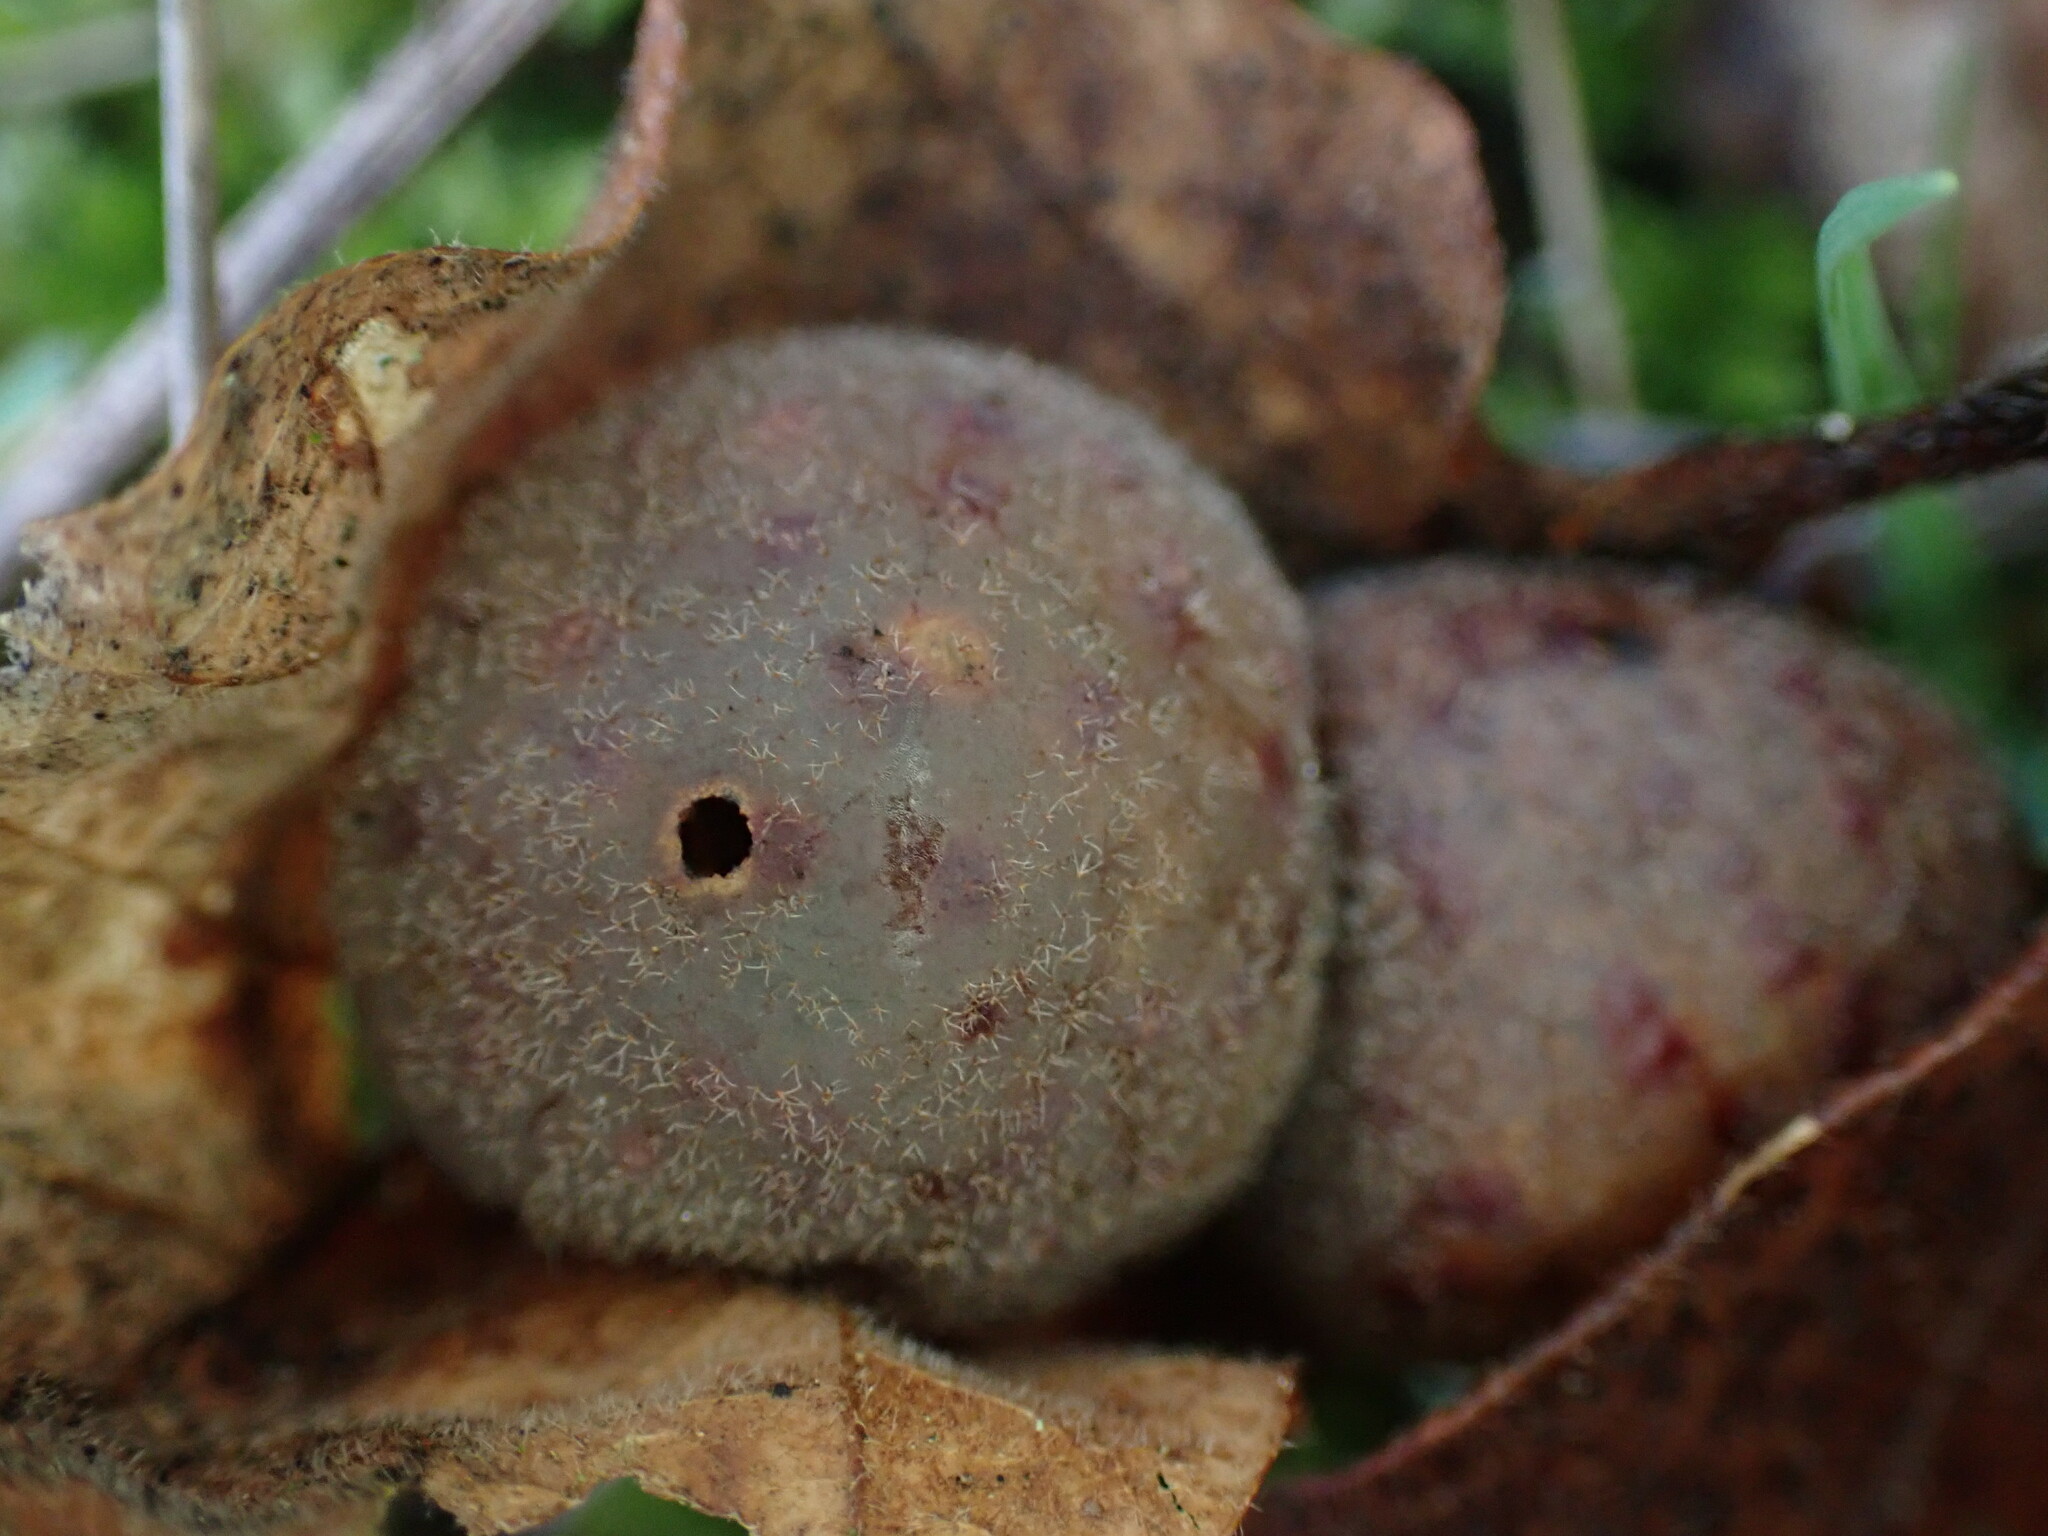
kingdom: Animalia
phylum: Arthropoda
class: Insecta
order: Hymenoptera
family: Cynipidae
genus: Cynips
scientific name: Cynips
